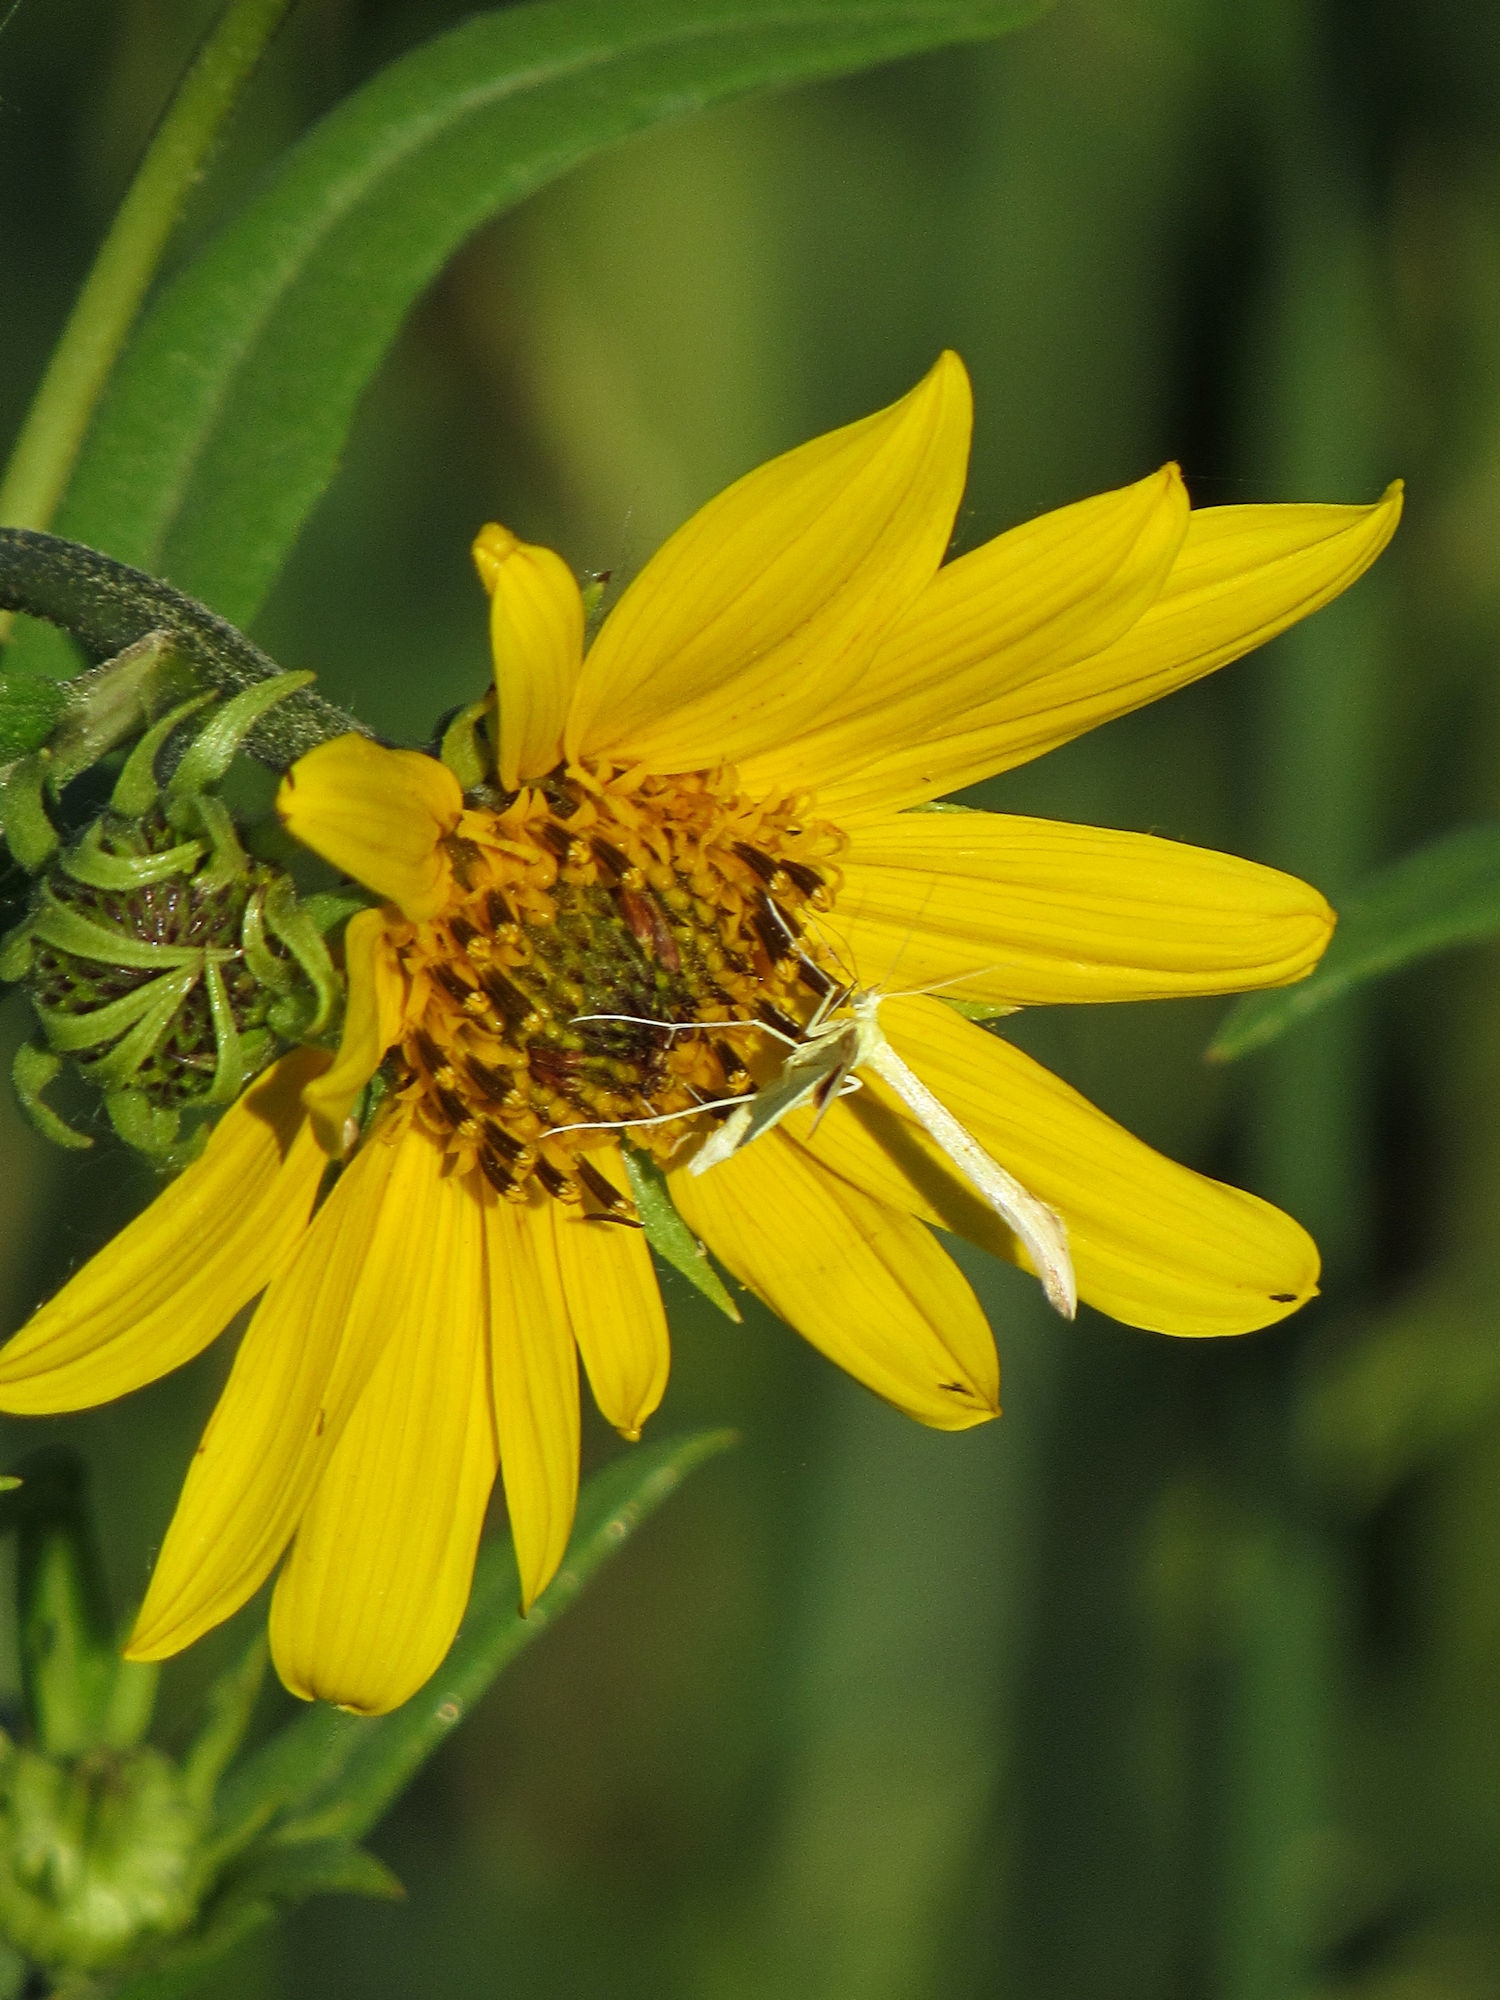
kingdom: Animalia
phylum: Arthropoda
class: Insecta
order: Lepidoptera
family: Pterophoridae
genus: Hellinsia
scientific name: Hellinsia sulphureodactylus
